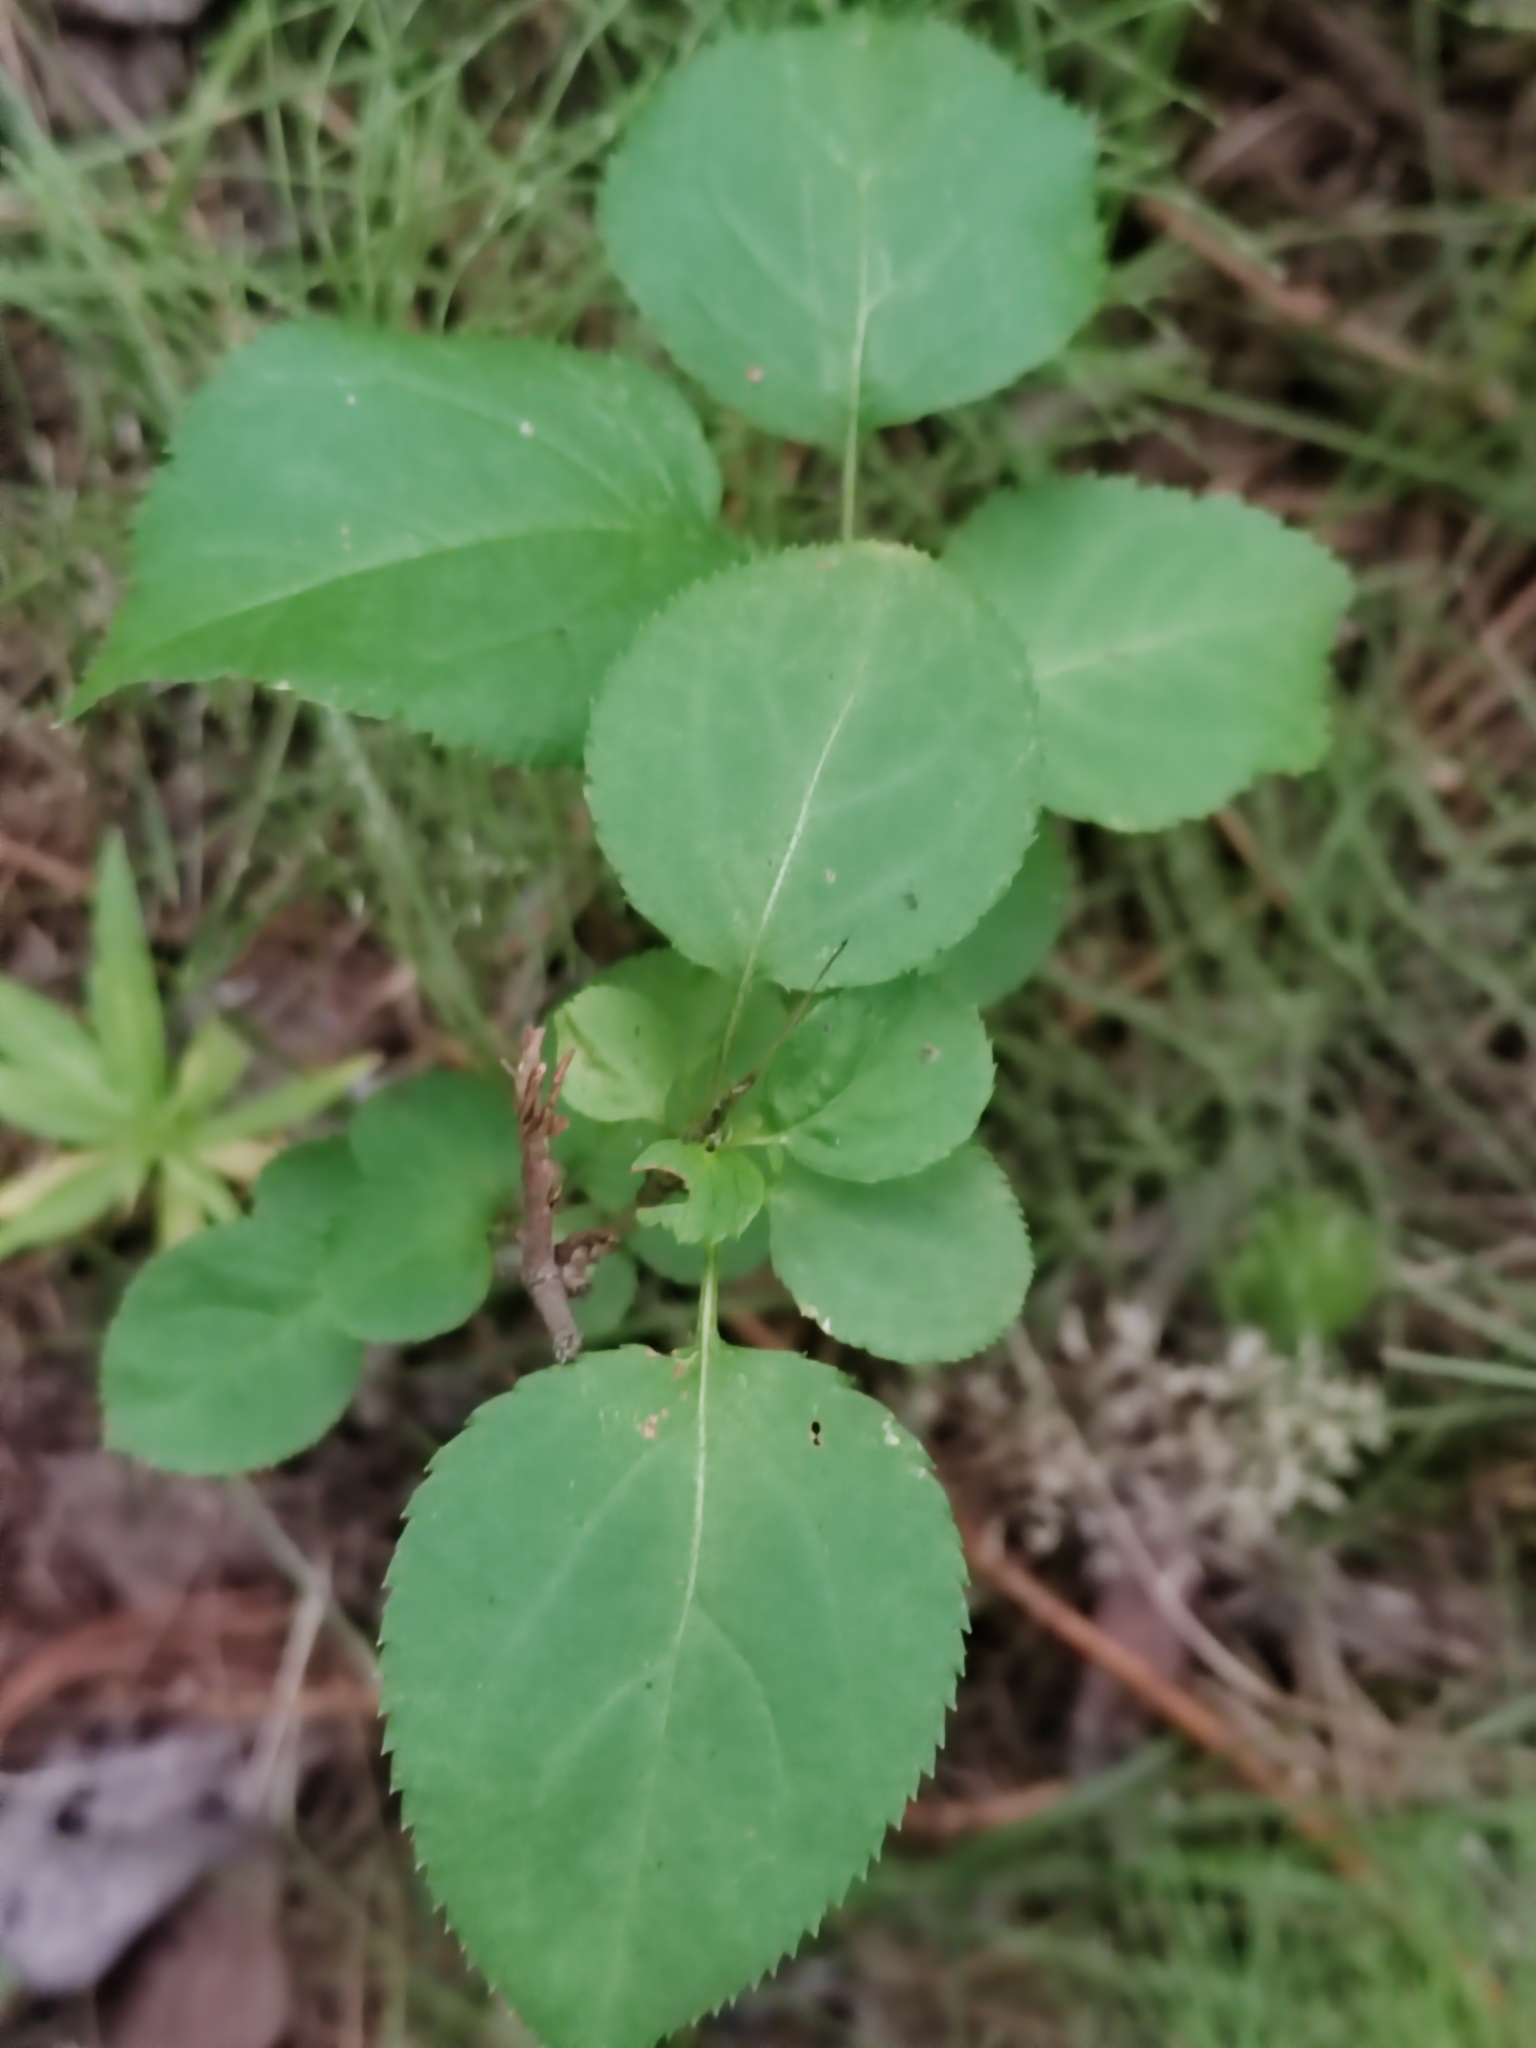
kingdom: Plantae
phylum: Tracheophyta
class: Magnoliopsida
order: Rosales
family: Rosaceae
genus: Malus
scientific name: Malus baccata
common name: Siberian crab
